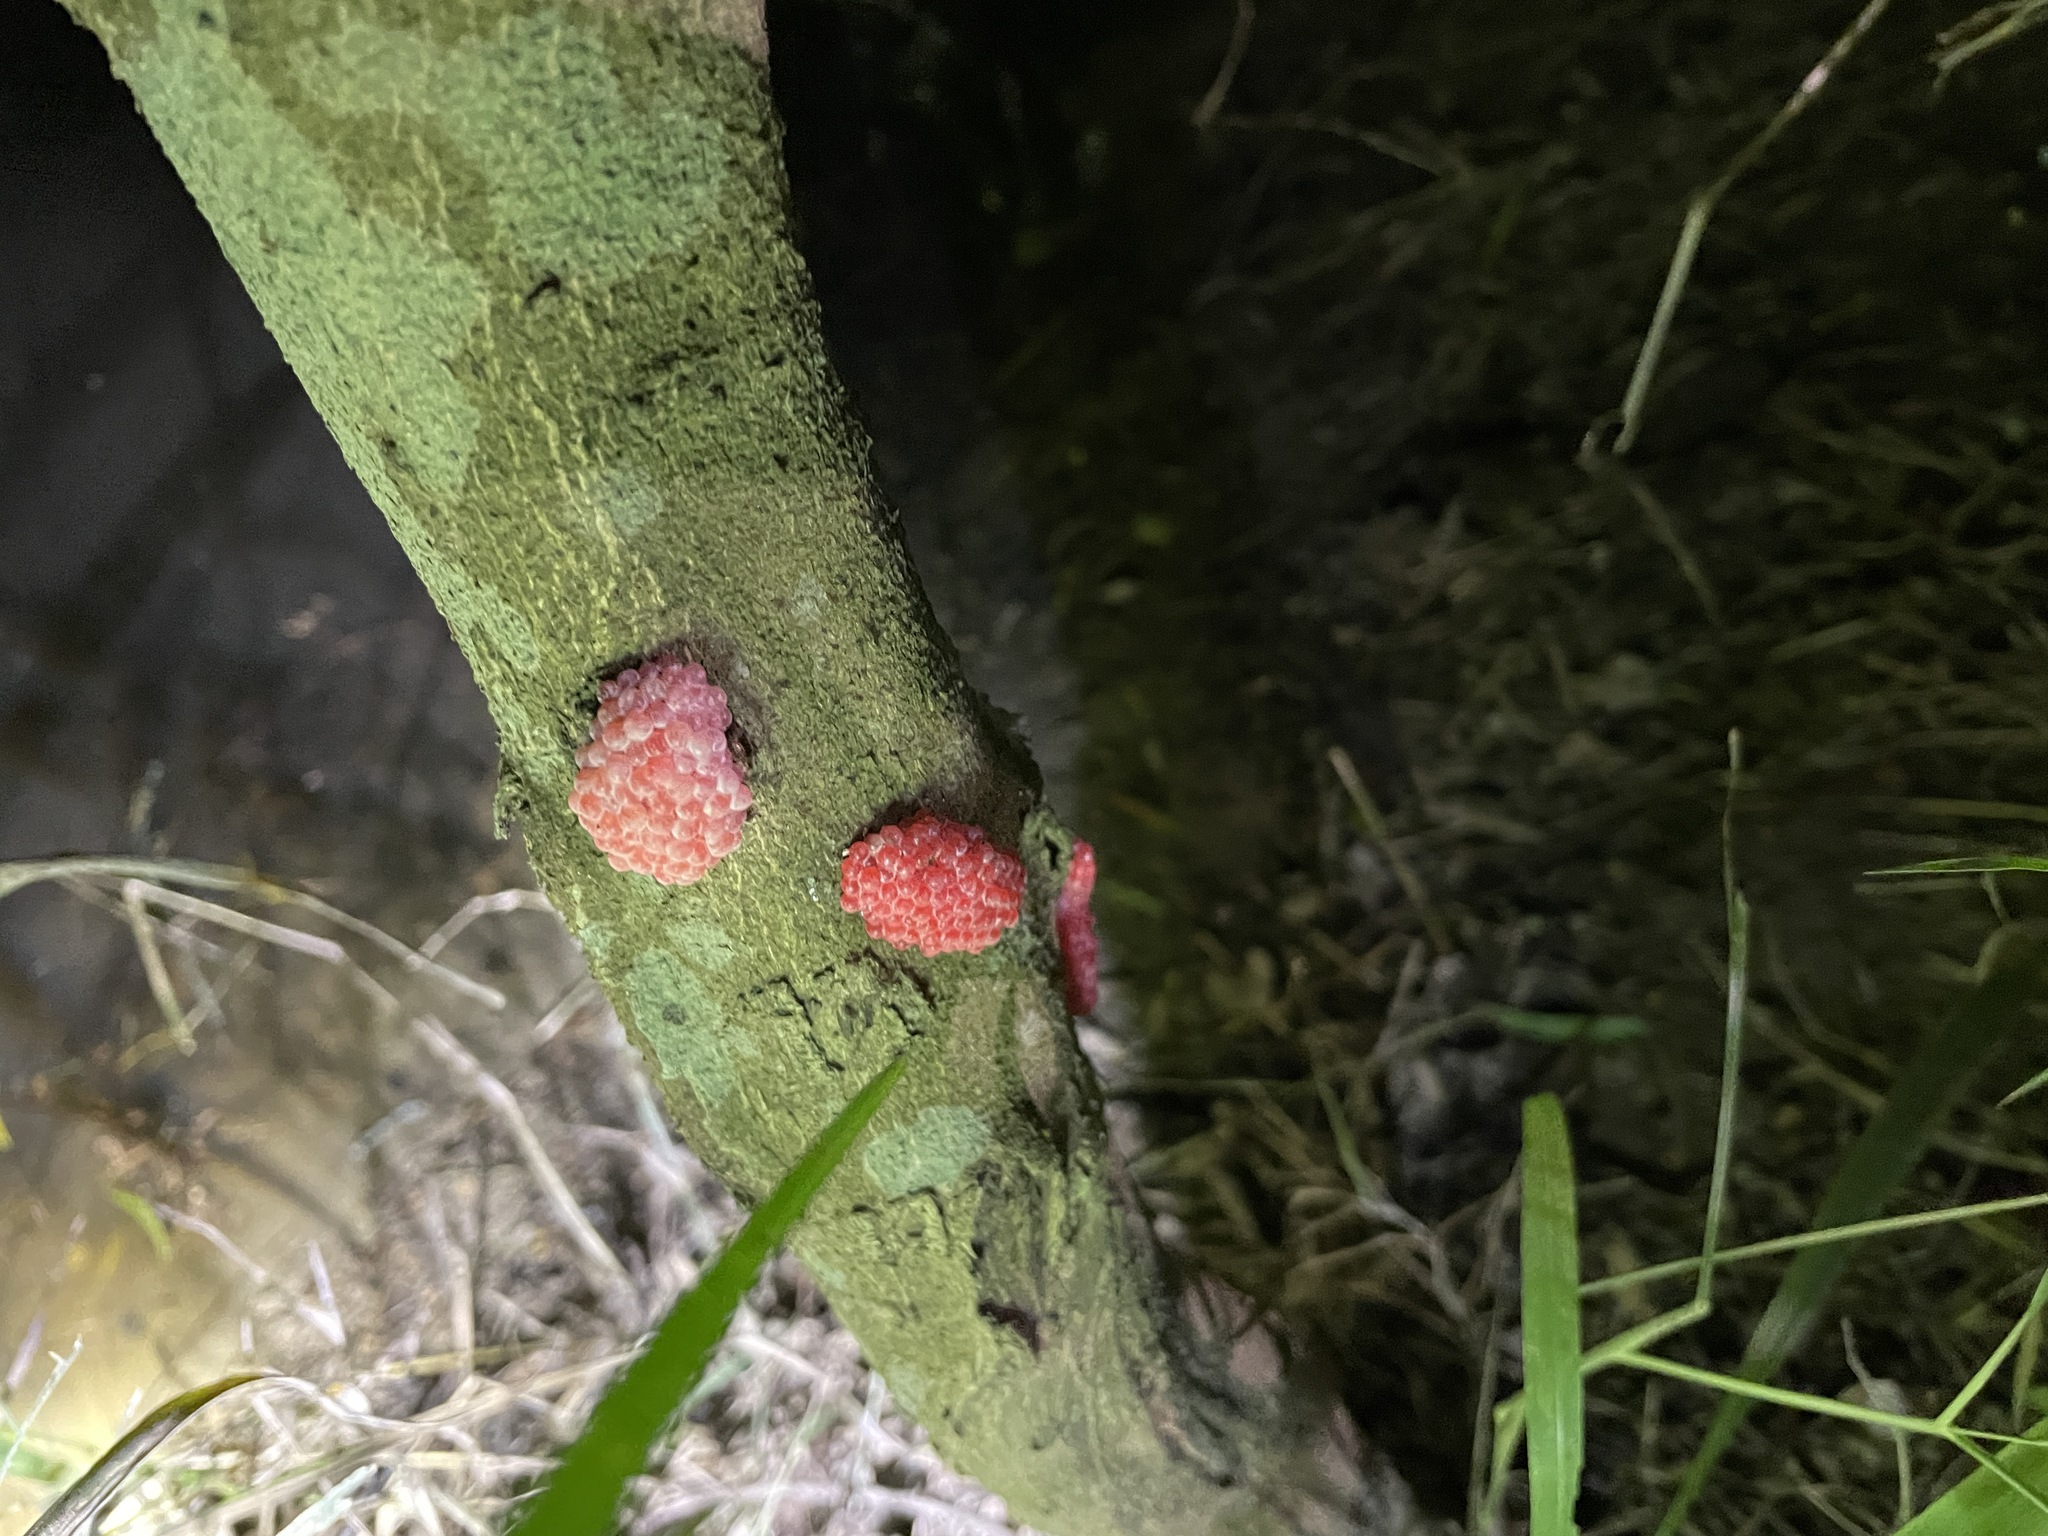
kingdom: Animalia
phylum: Mollusca
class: Gastropoda
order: Architaenioglossa
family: Ampullariidae
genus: Pomacea
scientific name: Pomacea canaliculata
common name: Channeled applesnail
